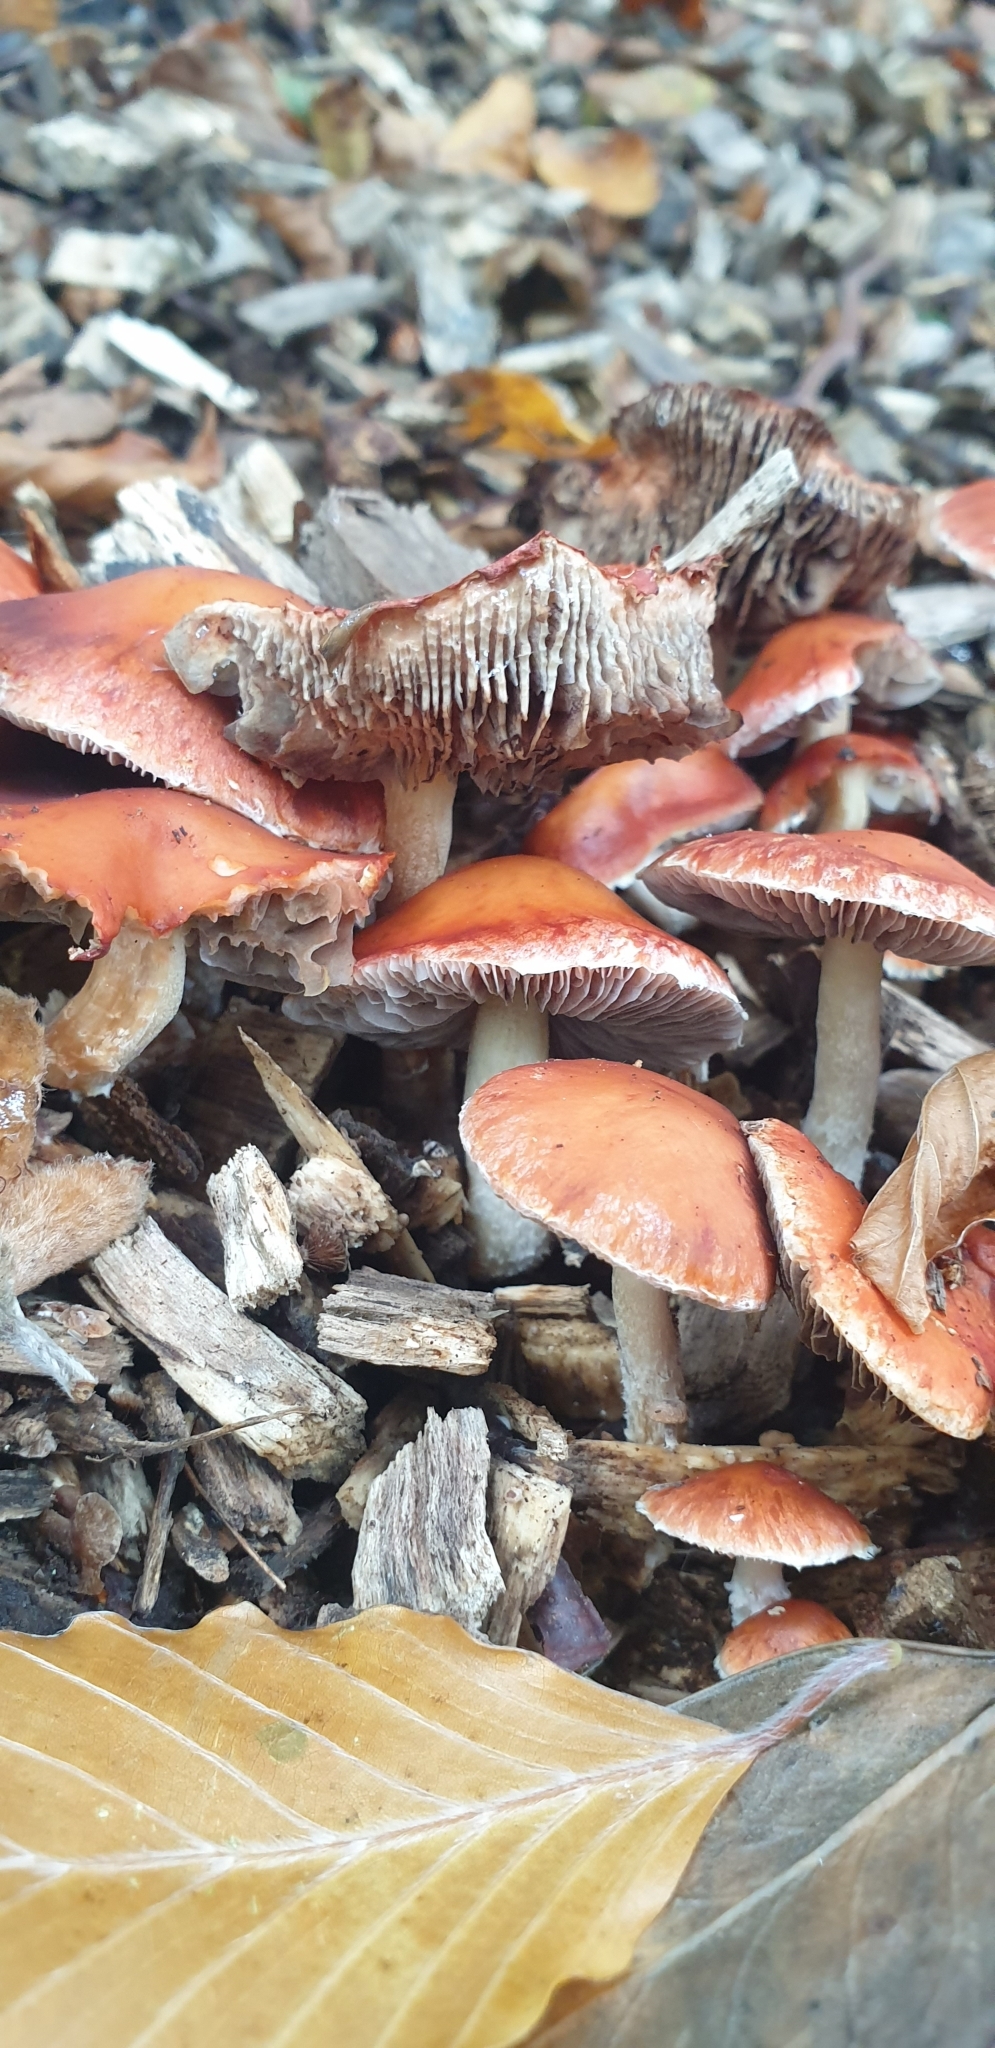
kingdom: Fungi
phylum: Basidiomycota
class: Agaricomycetes
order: Agaricales
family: Strophariaceae
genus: Leratiomyces
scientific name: Leratiomyces ceres
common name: Redlead roundhead
